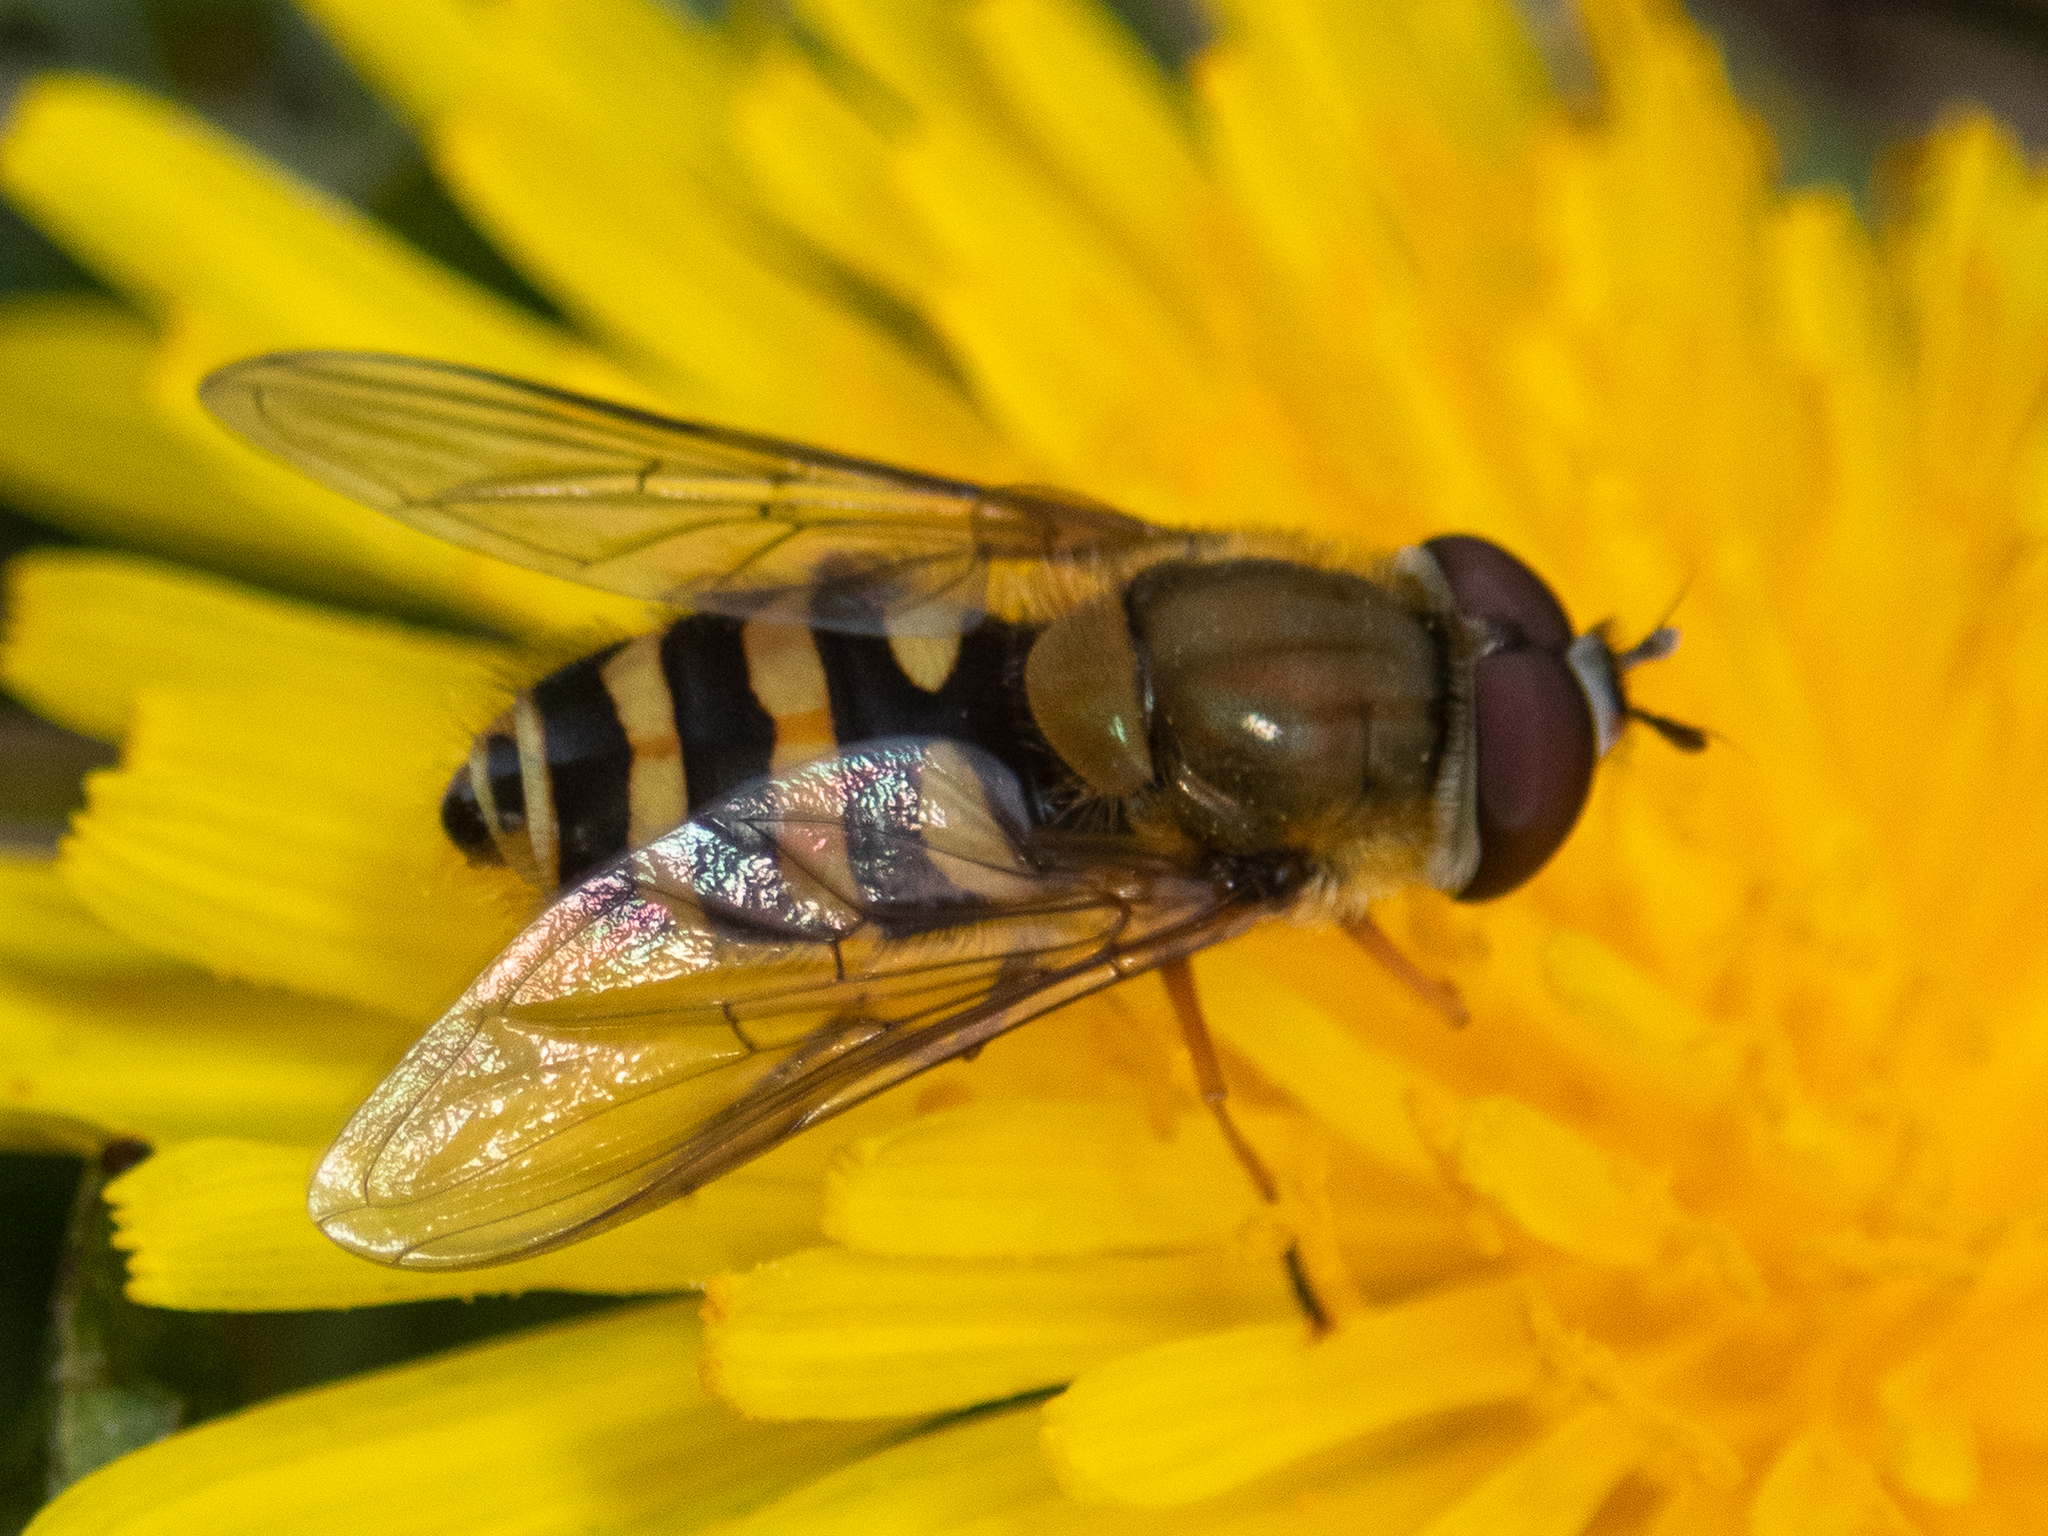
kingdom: Animalia
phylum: Arthropoda
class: Insecta
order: Diptera
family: Syrphidae
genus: Syrphus
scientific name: Syrphus
